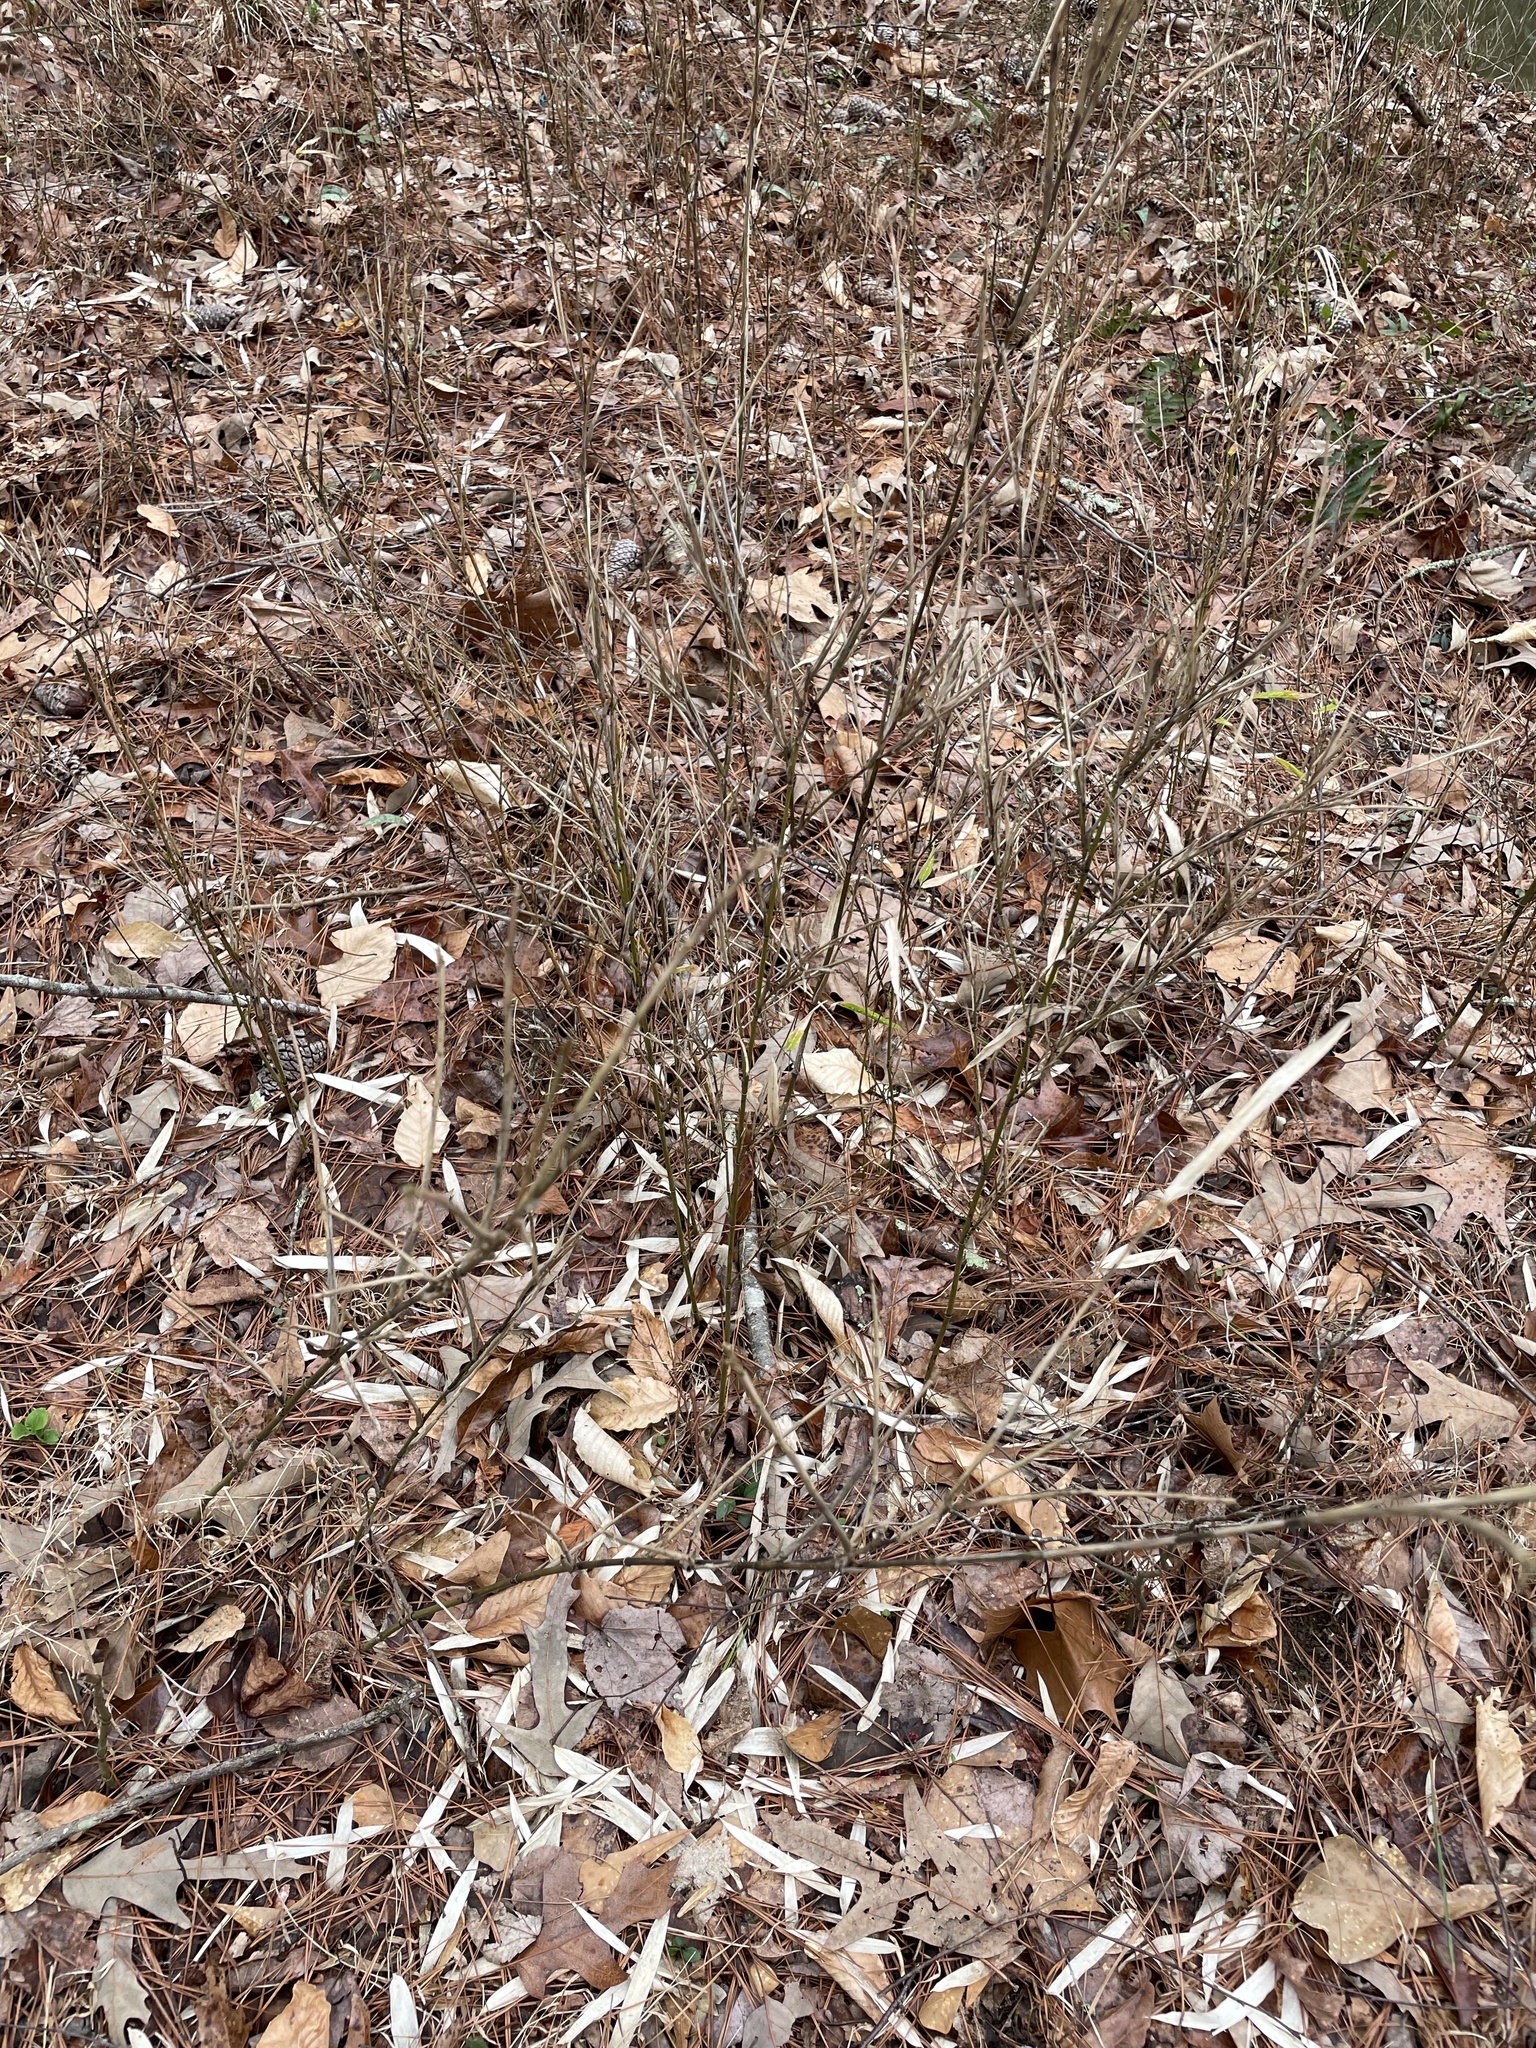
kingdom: Plantae
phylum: Tracheophyta
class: Liliopsida
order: Poales
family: Poaceae
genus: Arundinaria
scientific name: Arundinaria appalachiana
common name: Hill cane
